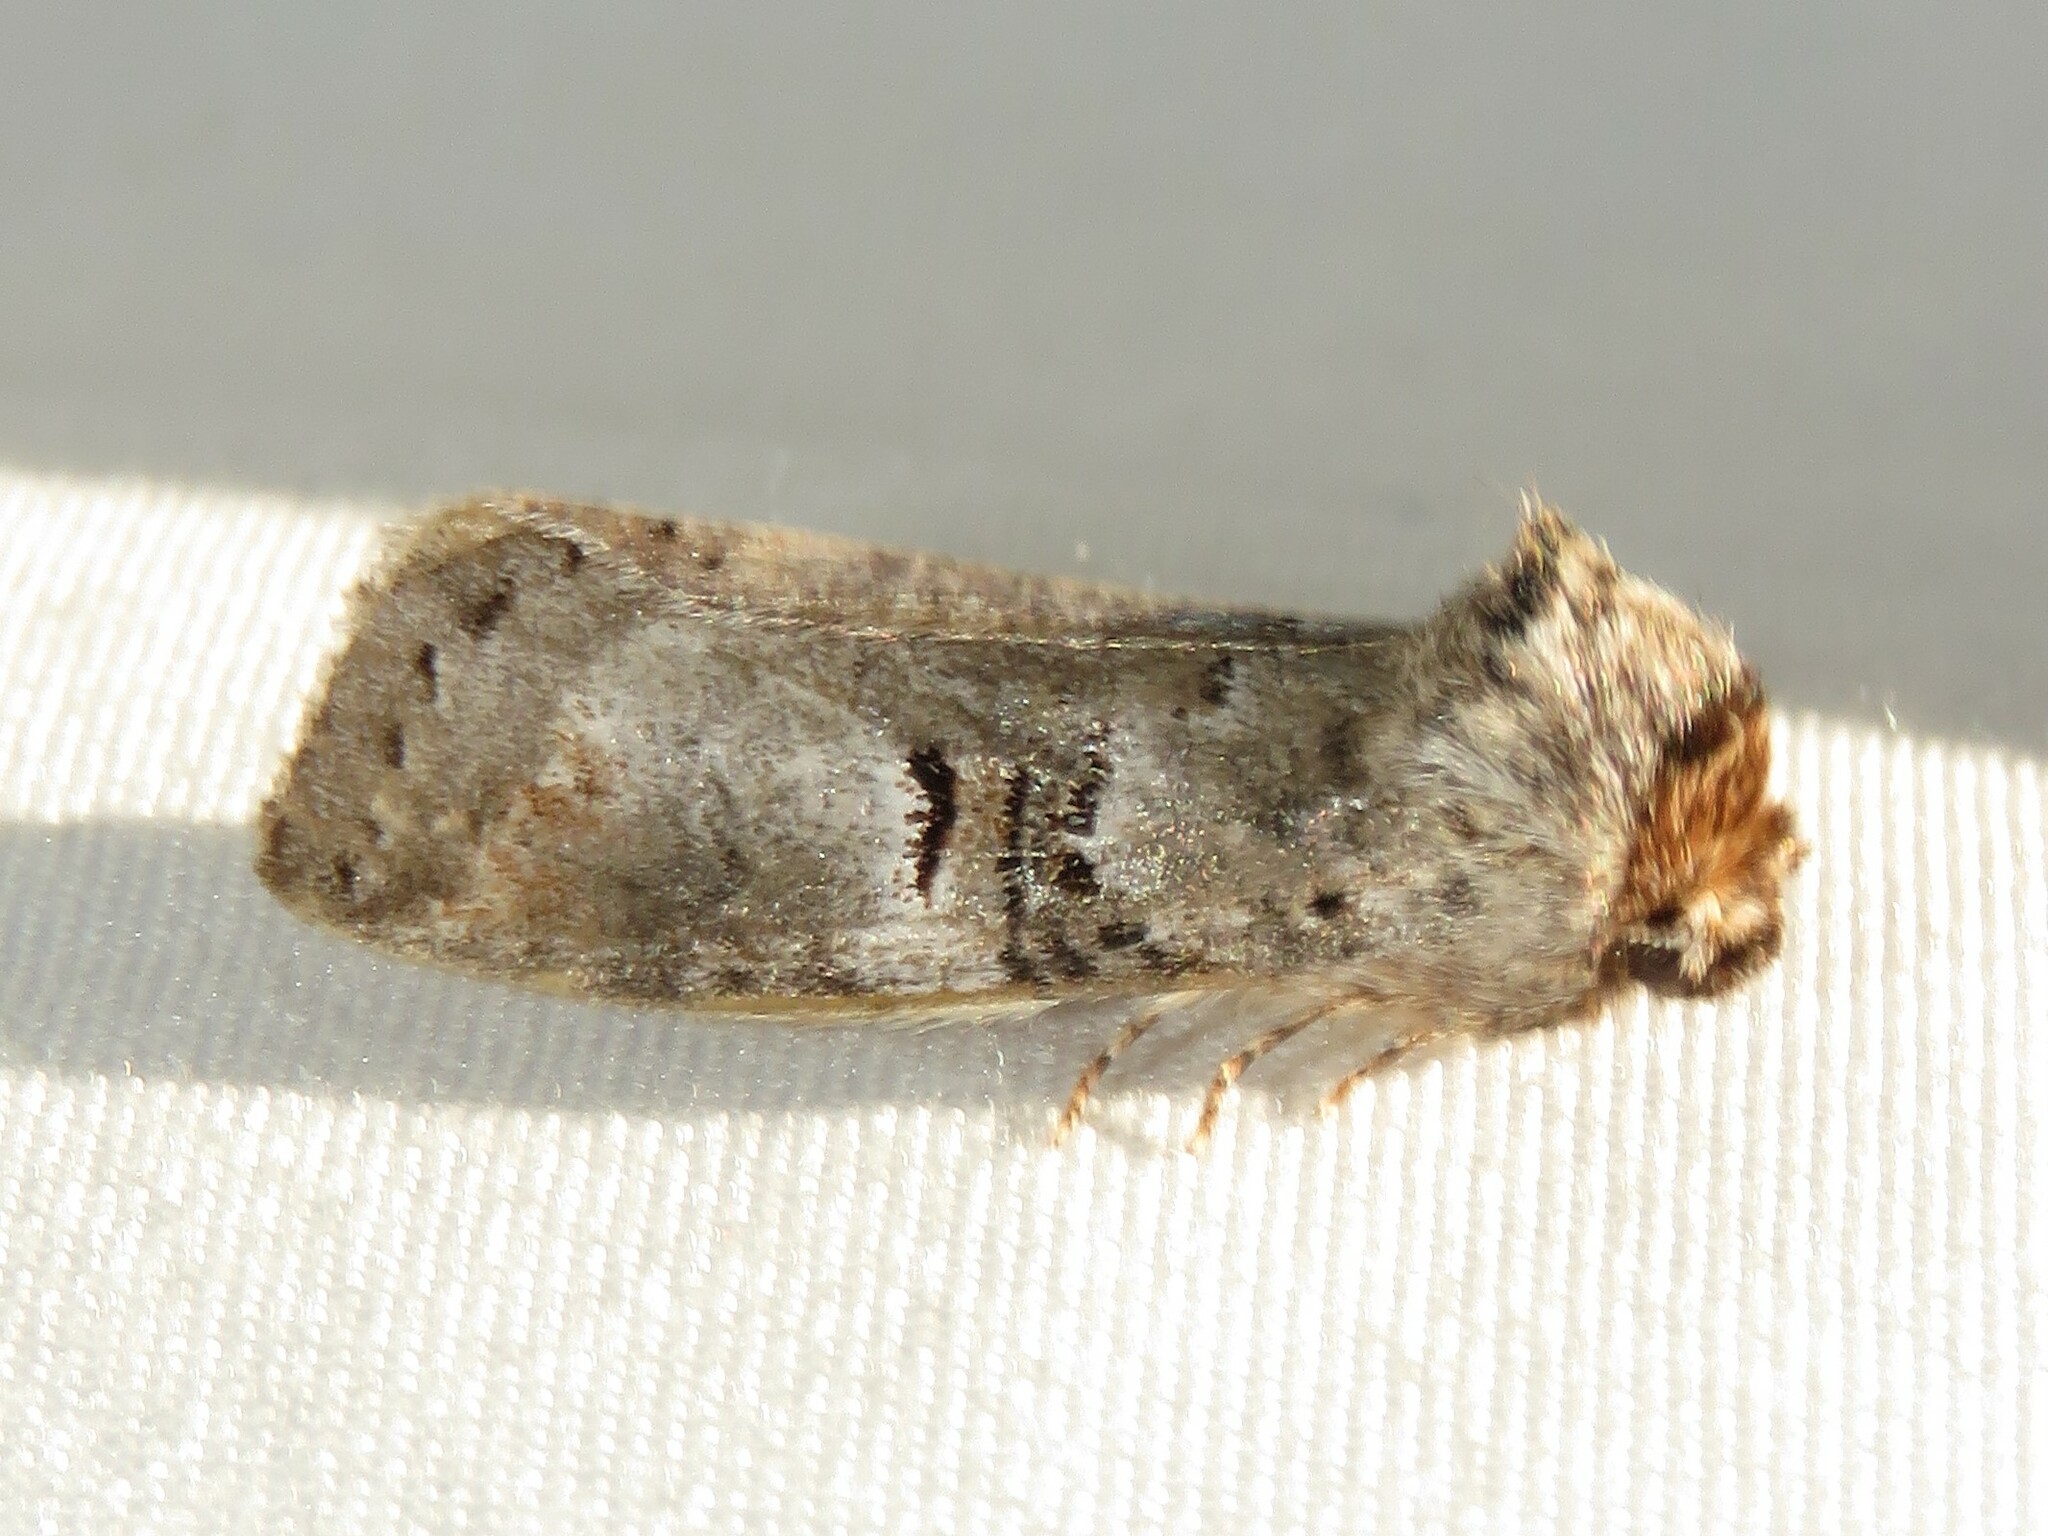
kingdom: Animalia
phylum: Arthropoda
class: Insecta
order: Lepidoptera
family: Notodontidae
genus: Ellida
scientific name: Ellida caniplaga
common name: Linden prominent
